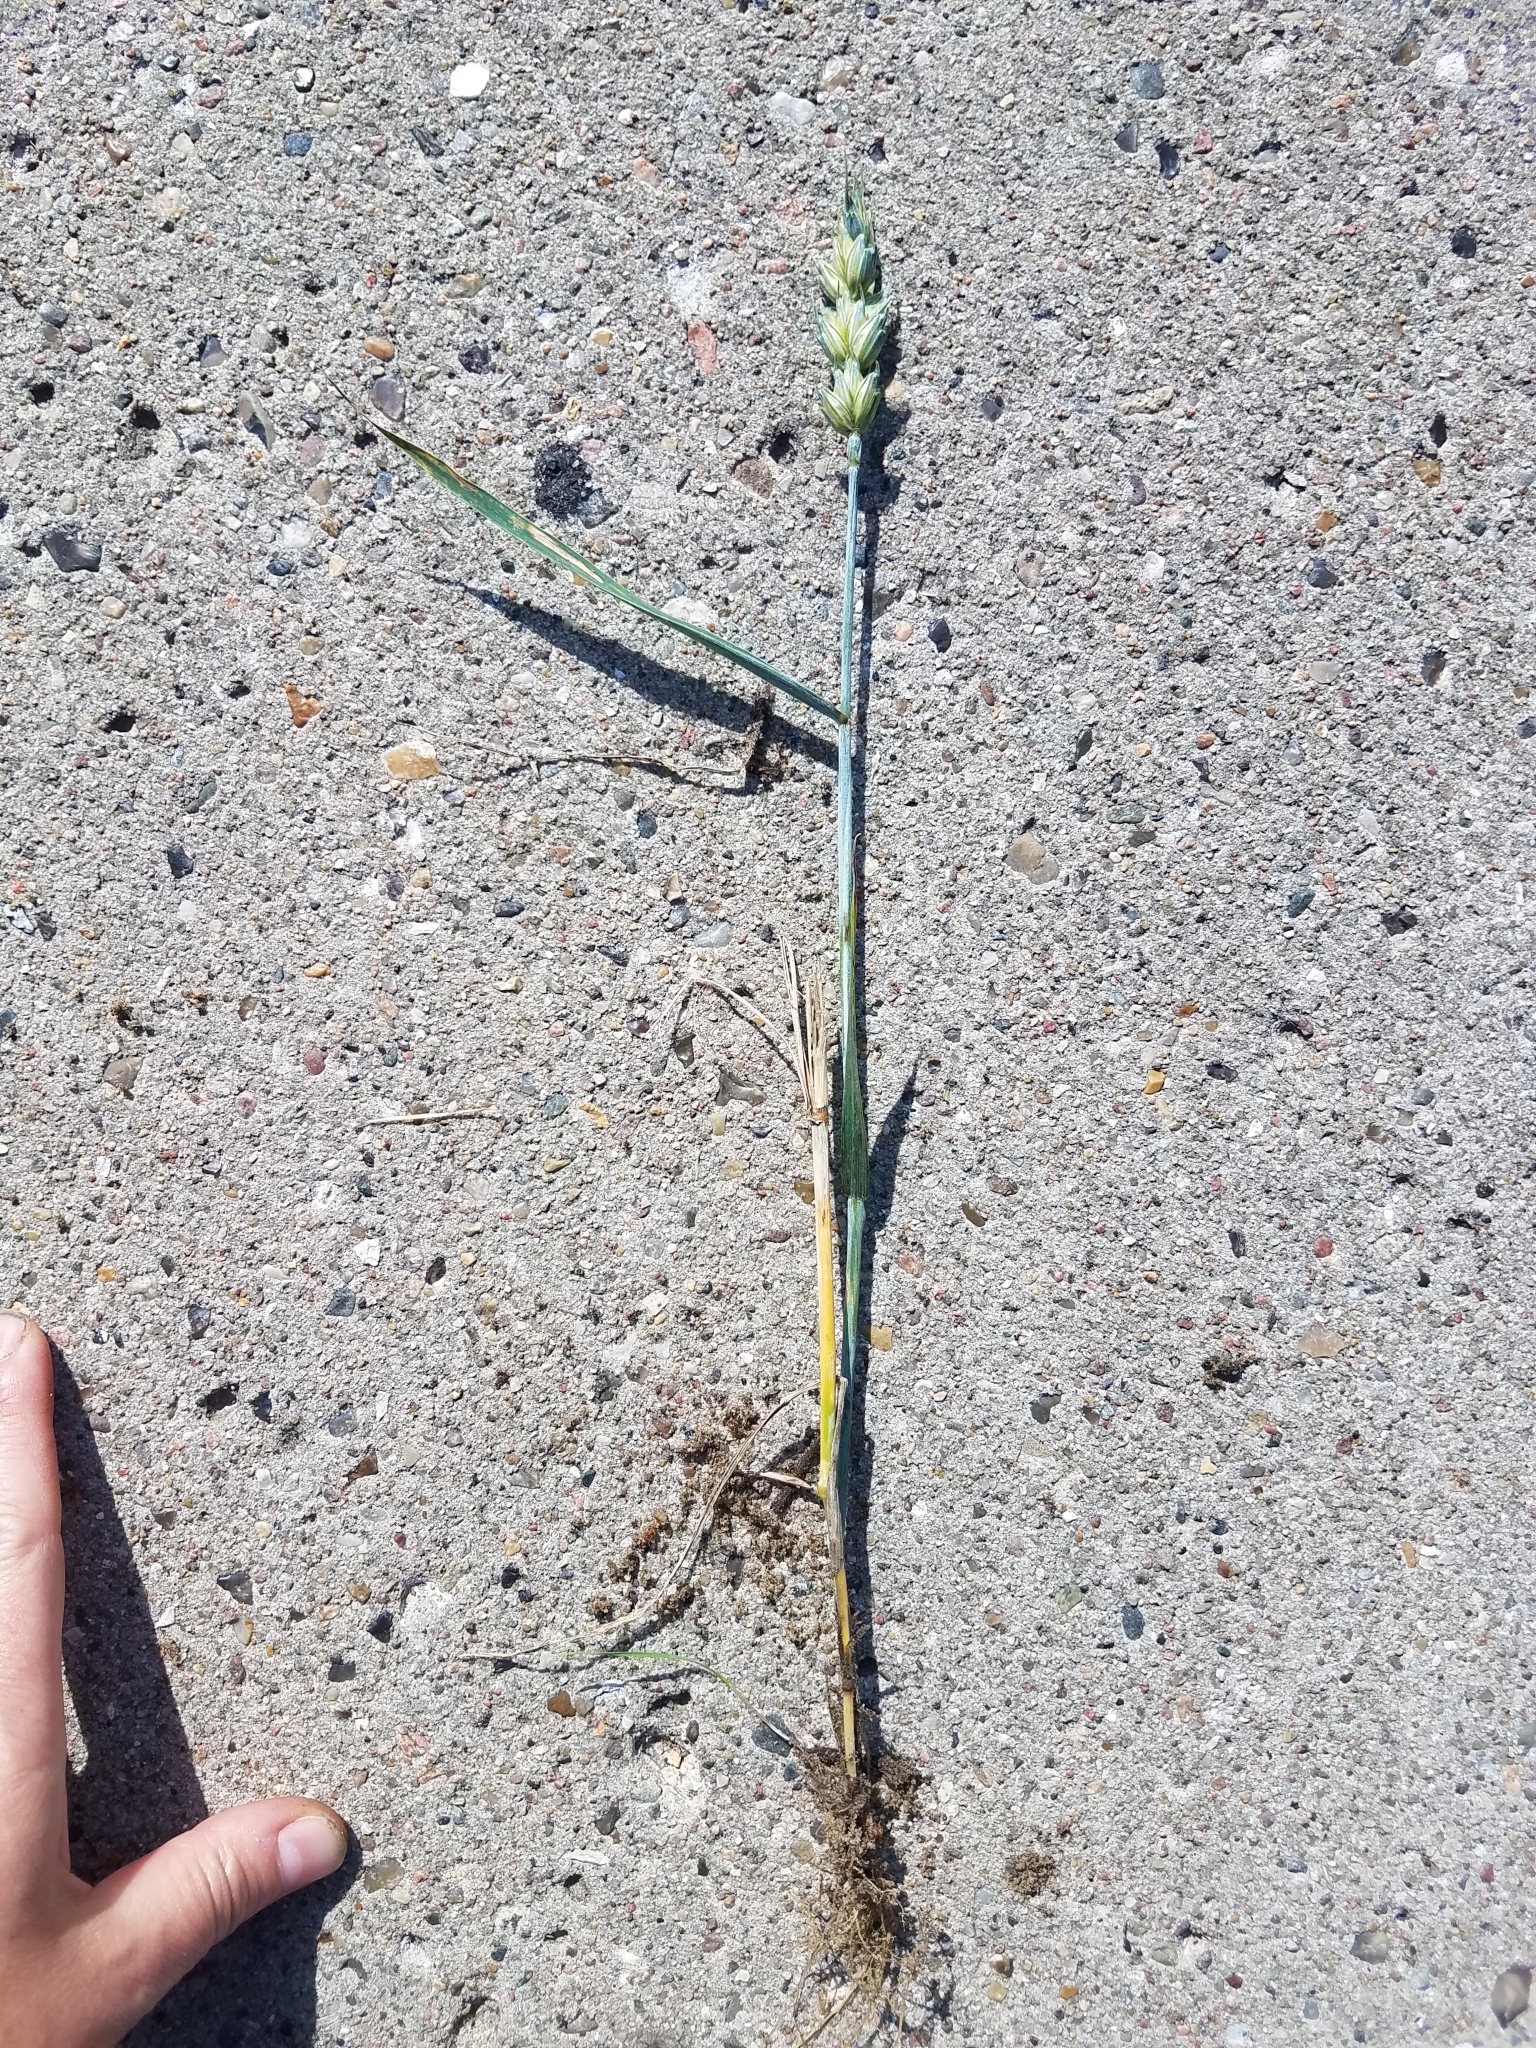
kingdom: Plantae
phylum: Tracheophyta
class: Liliopsida
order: Poales
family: Poaceae
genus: Triticum
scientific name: Triticum aestivum
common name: Common wheat
